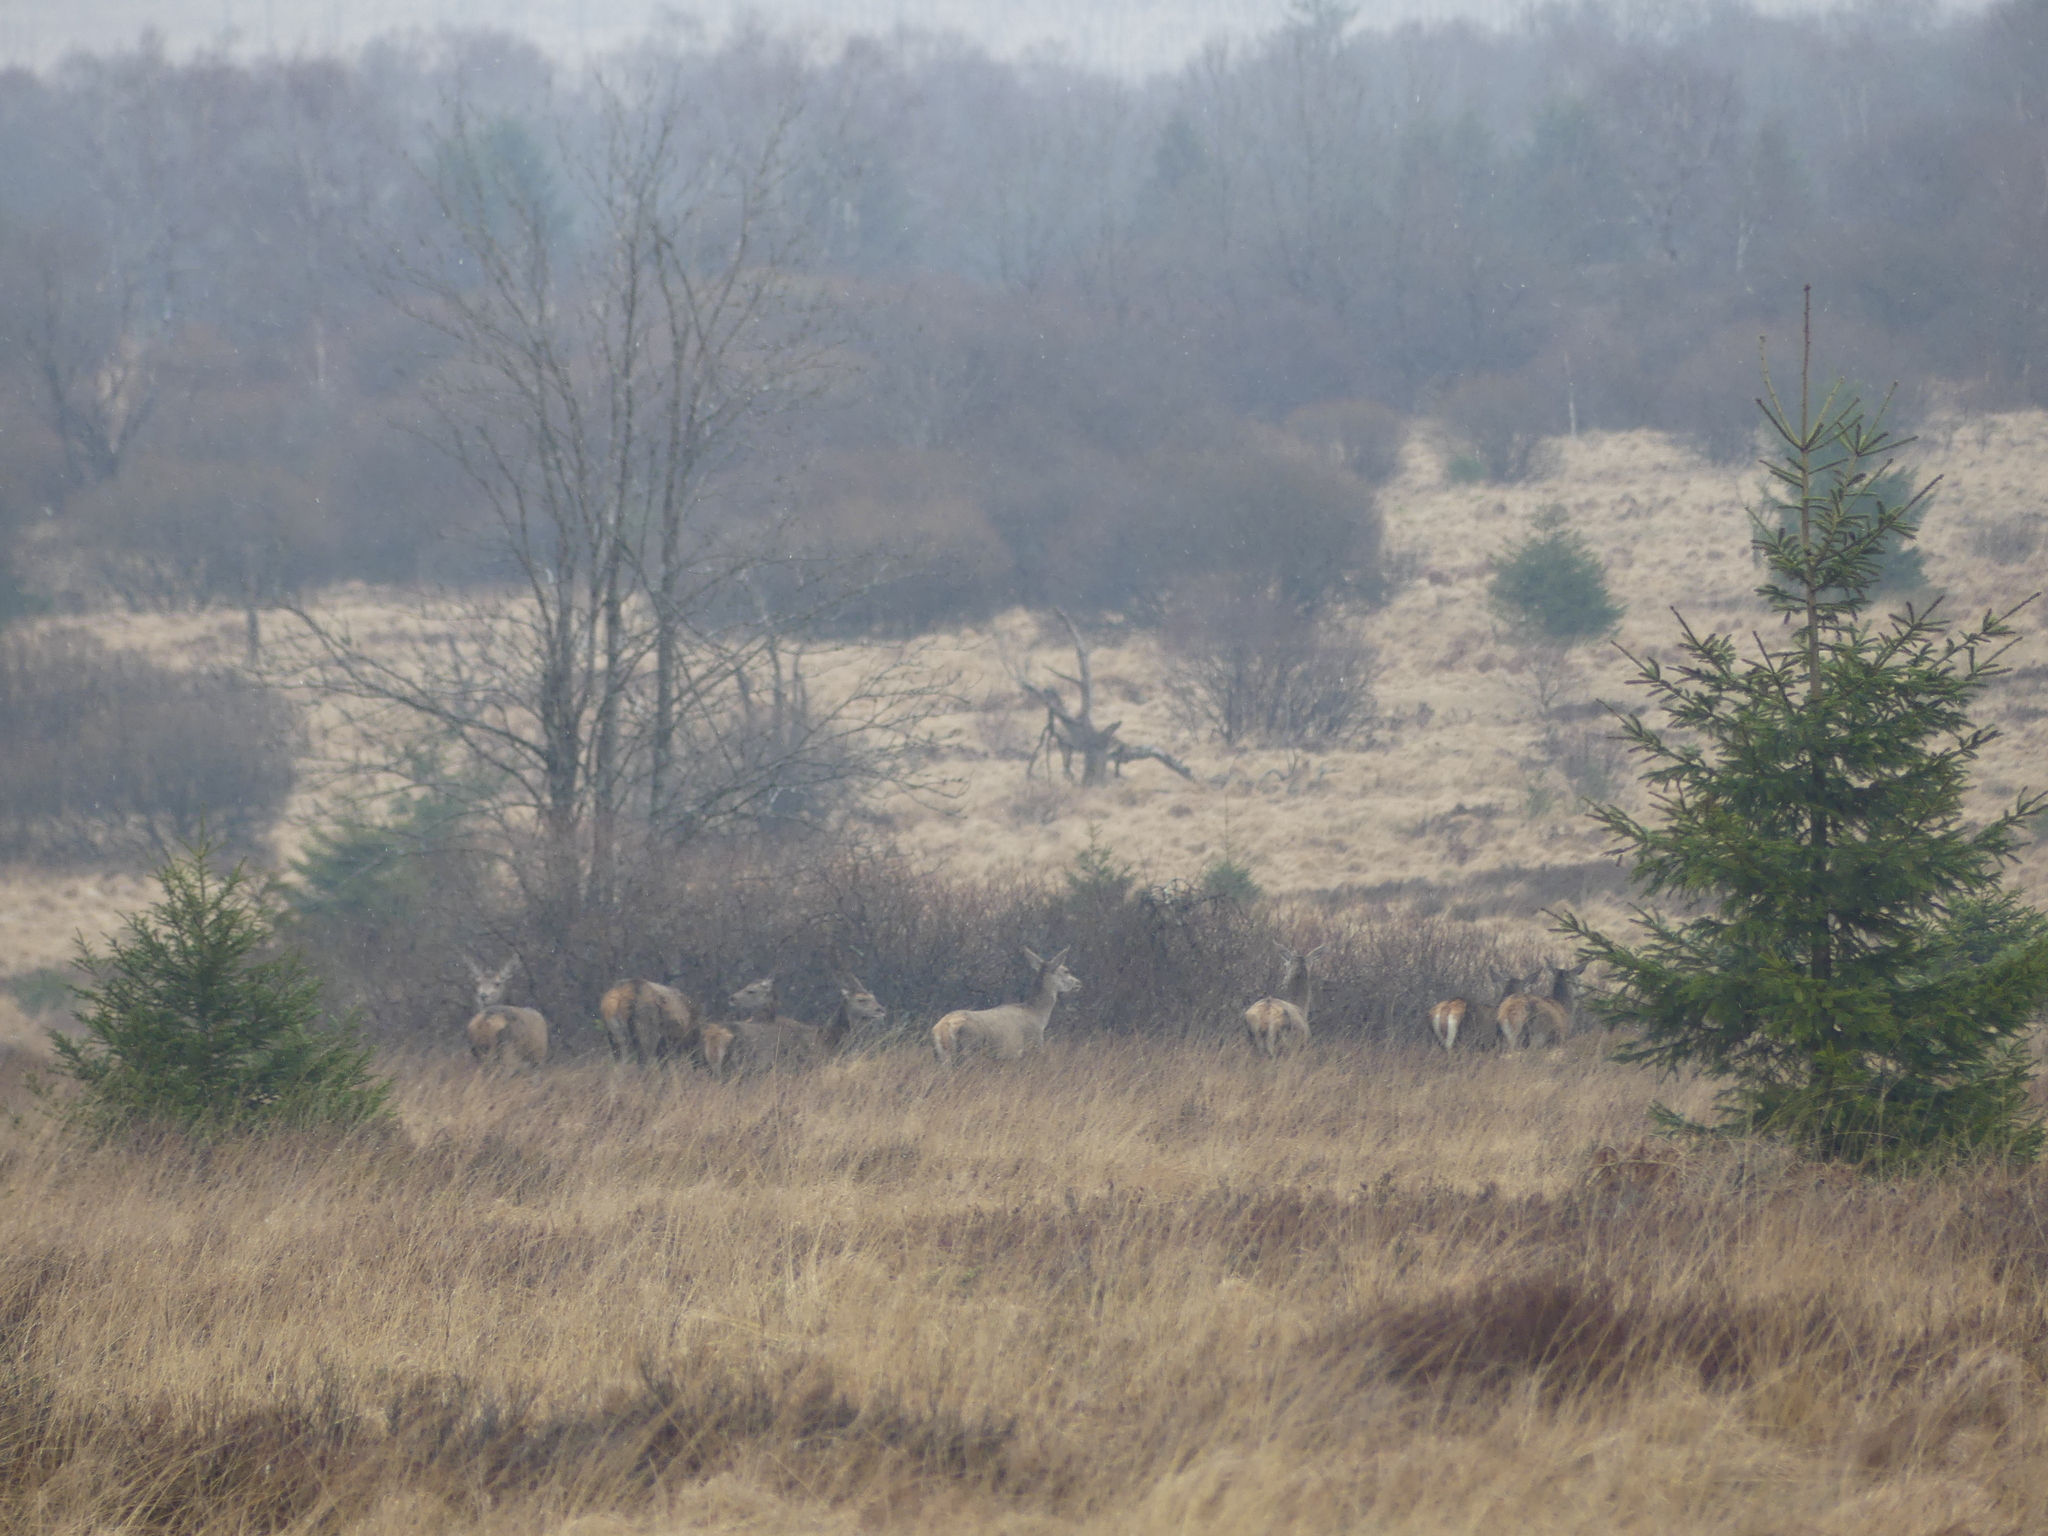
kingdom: Animalia
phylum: Chordata
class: Mammalia
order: Artiodactyla
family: Cervidae
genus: Cervus
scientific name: Cervus elaphus
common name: Red deer
